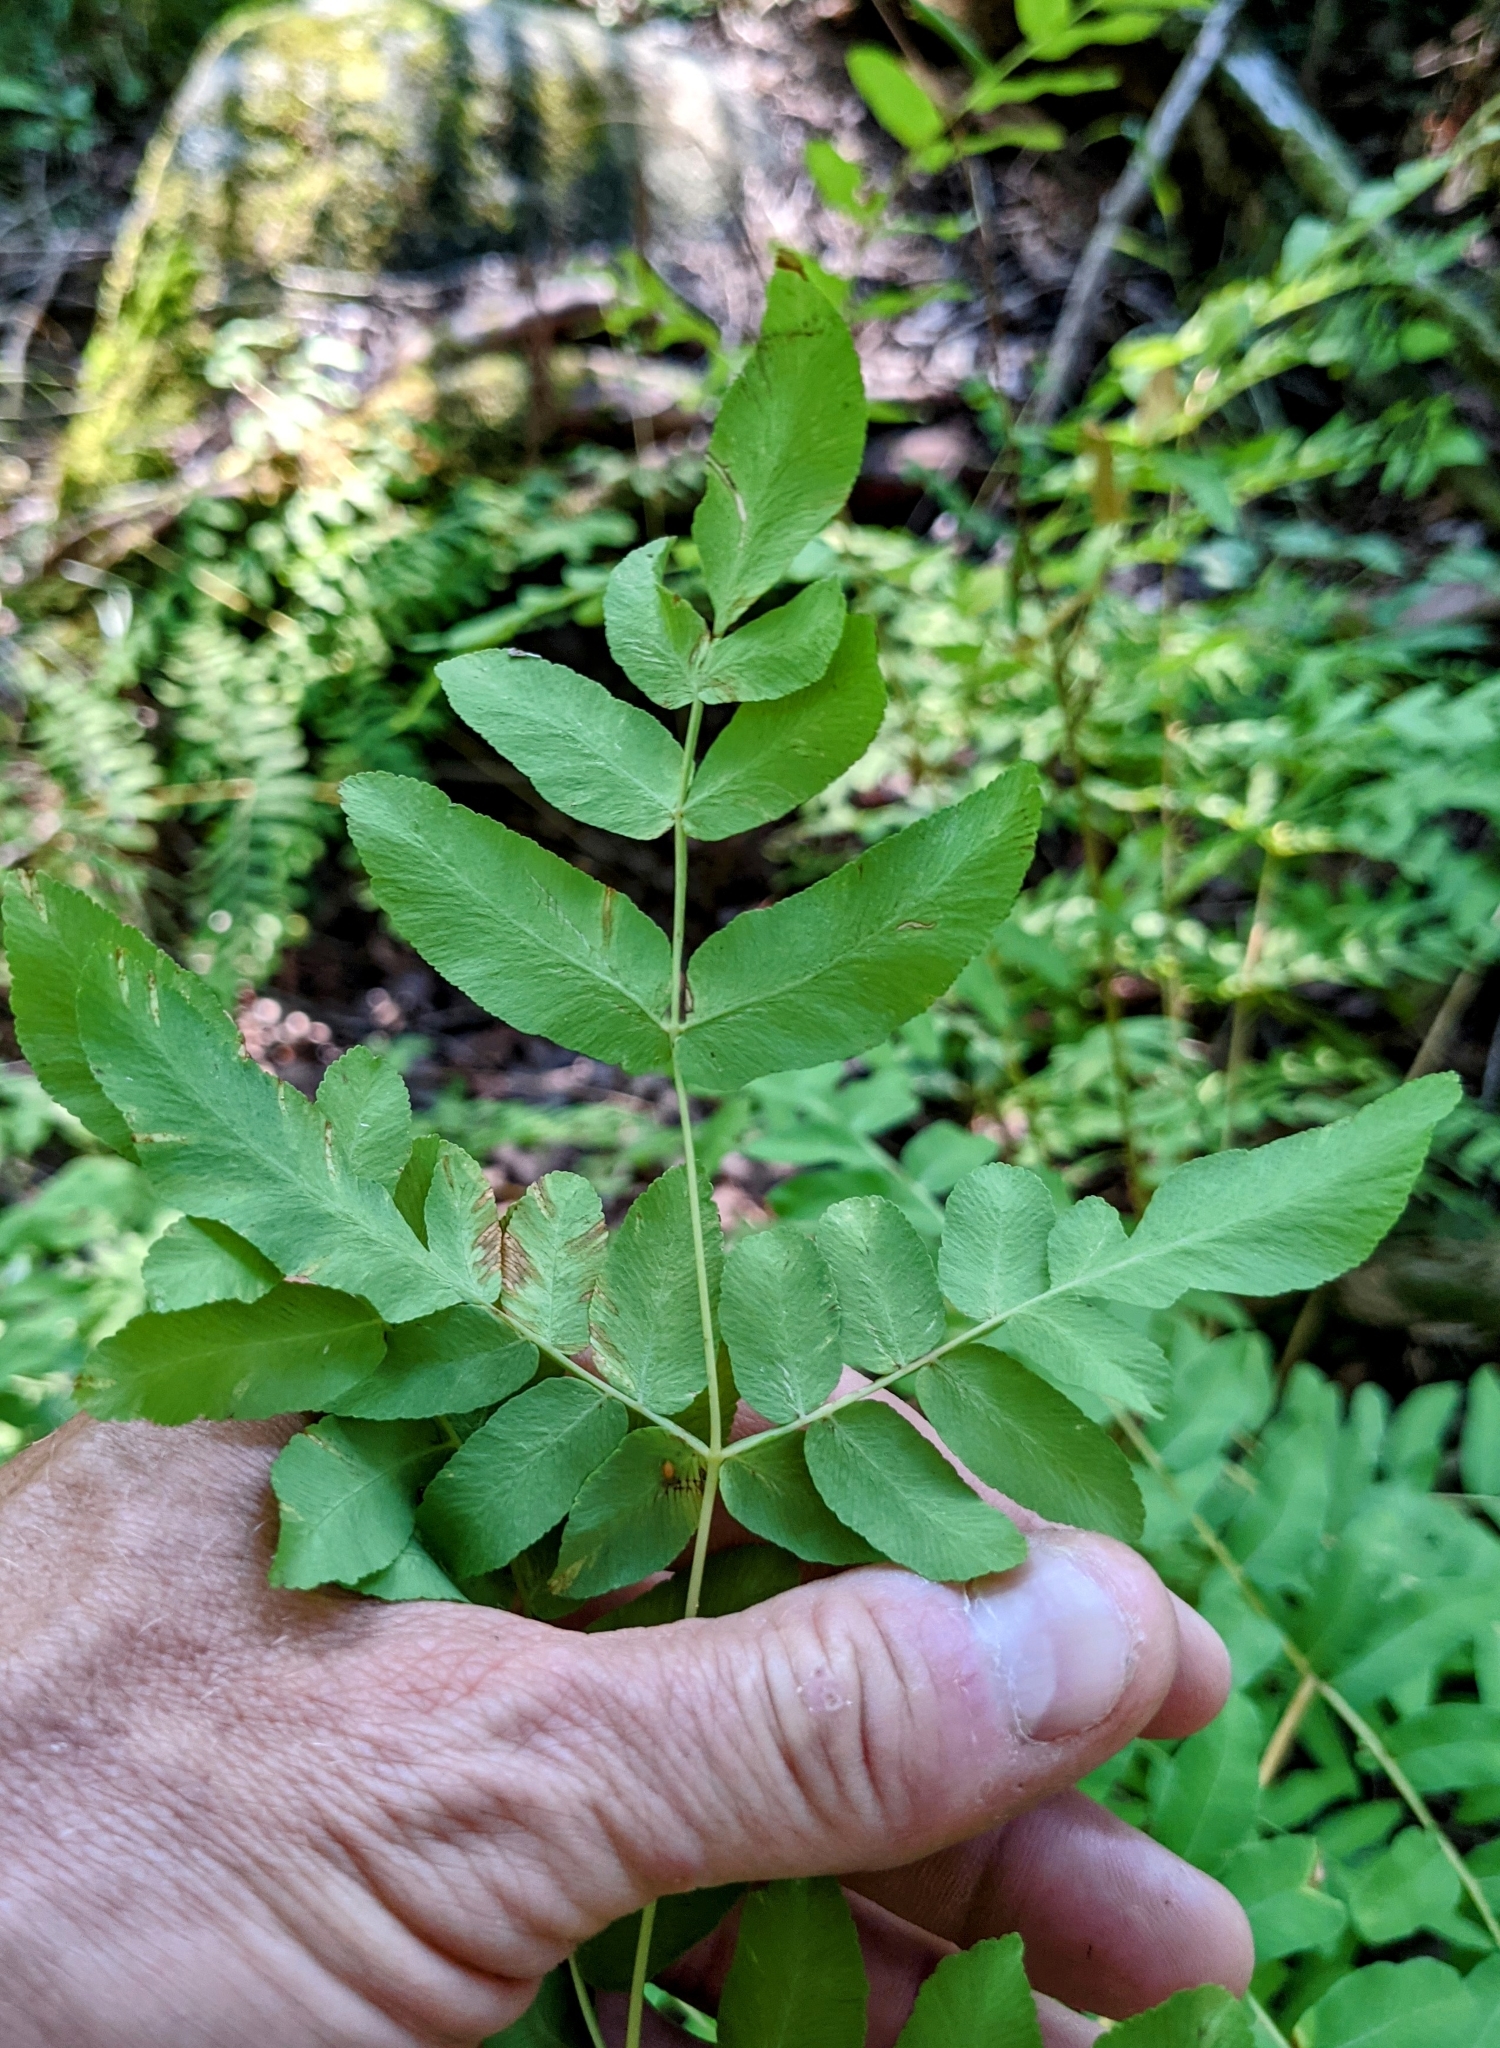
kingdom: Plantae
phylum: Tracheophyta
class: Polypodiopsida
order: Osmundales
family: Osmundaceae
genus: Osmunda
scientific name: Osmunda spectabilis
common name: American royal fern
